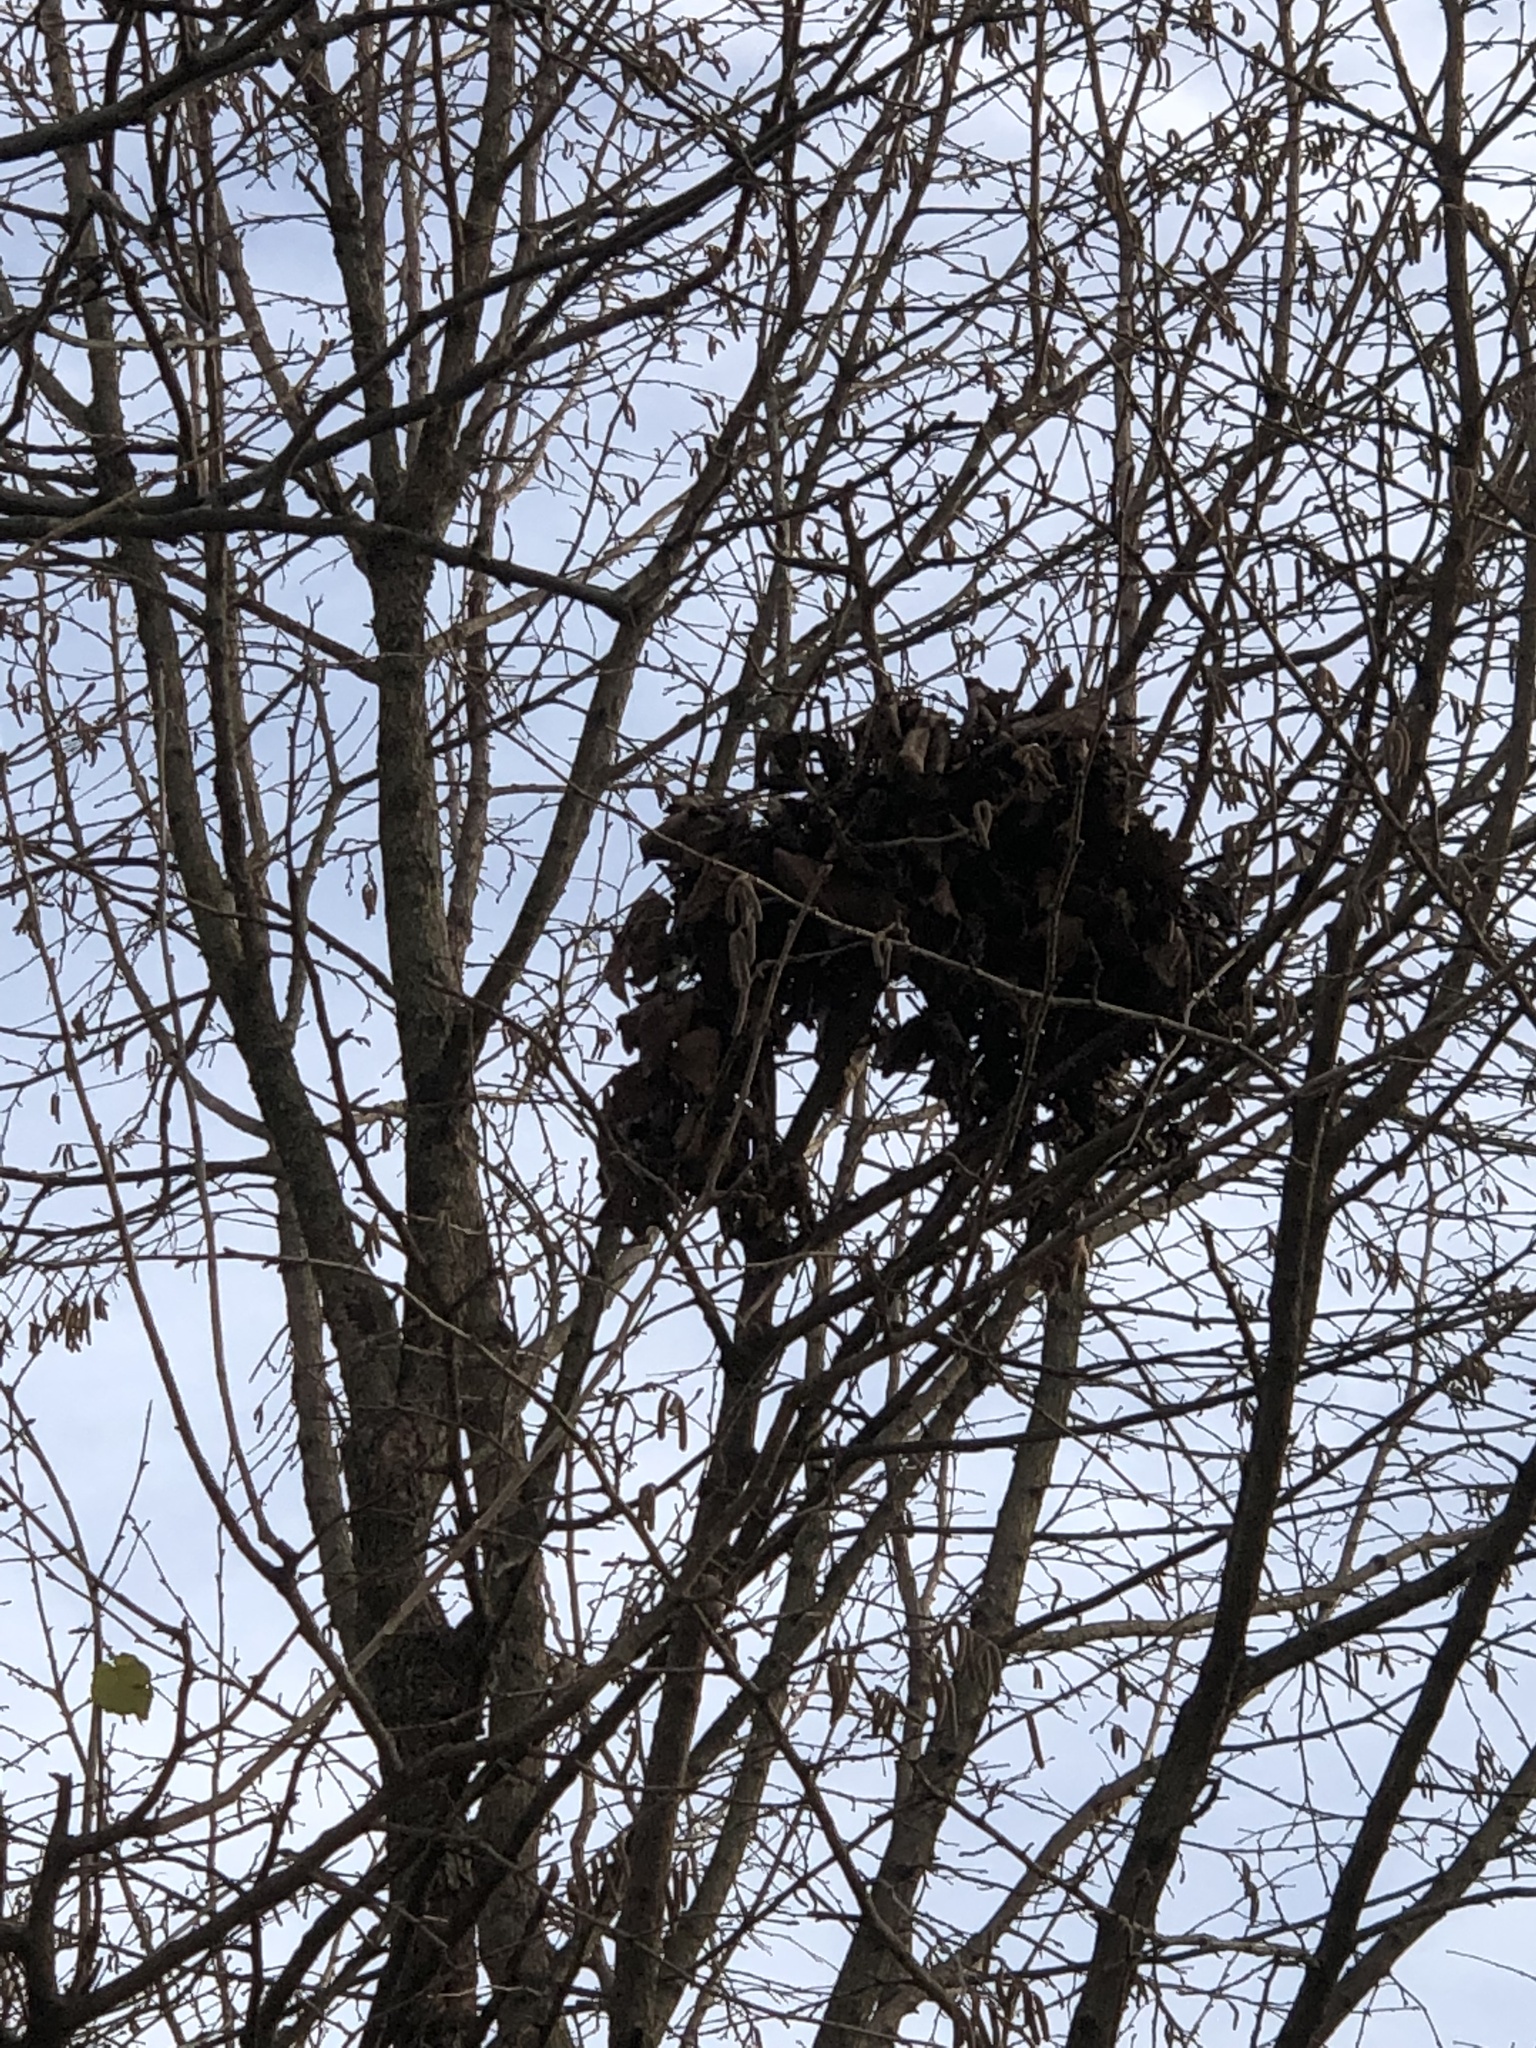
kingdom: Animalia
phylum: Chordata
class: Mammalia
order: Rodentia
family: Sciuridae
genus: Sciurus
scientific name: Sciurus carolinensis
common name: Eastern gray squirrel
